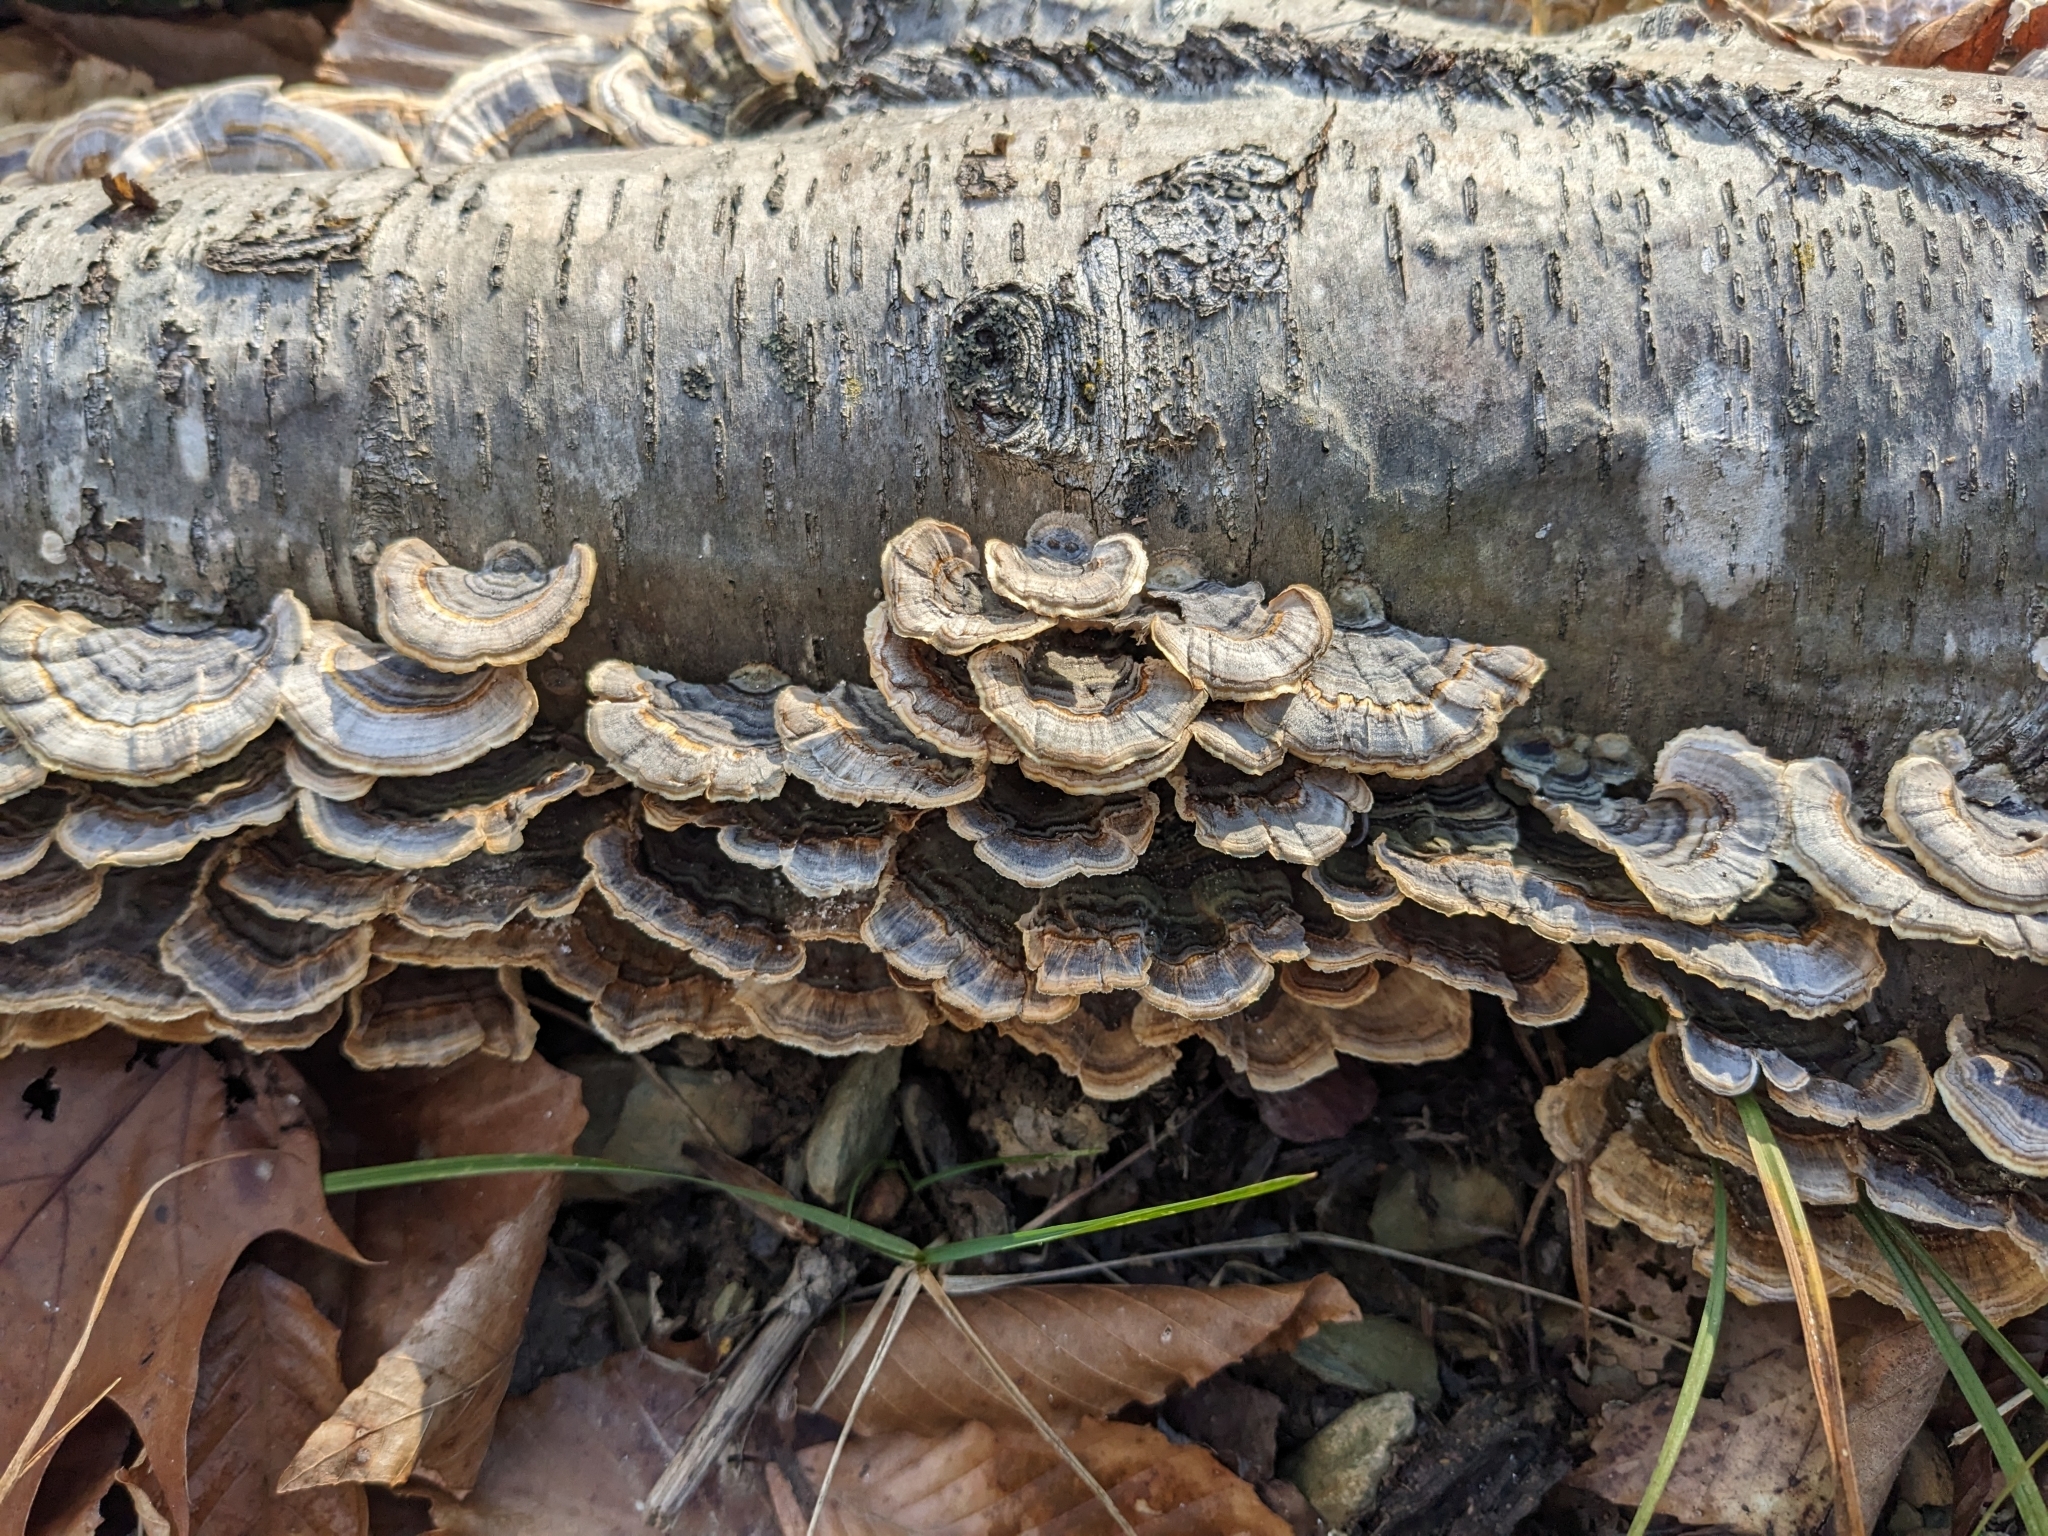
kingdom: Fungi
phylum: Basidiomycota
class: Agaricomycetes
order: Polyporales
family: Polyporaceae
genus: Trametes
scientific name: Trametes versicolor
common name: Turkeytail
